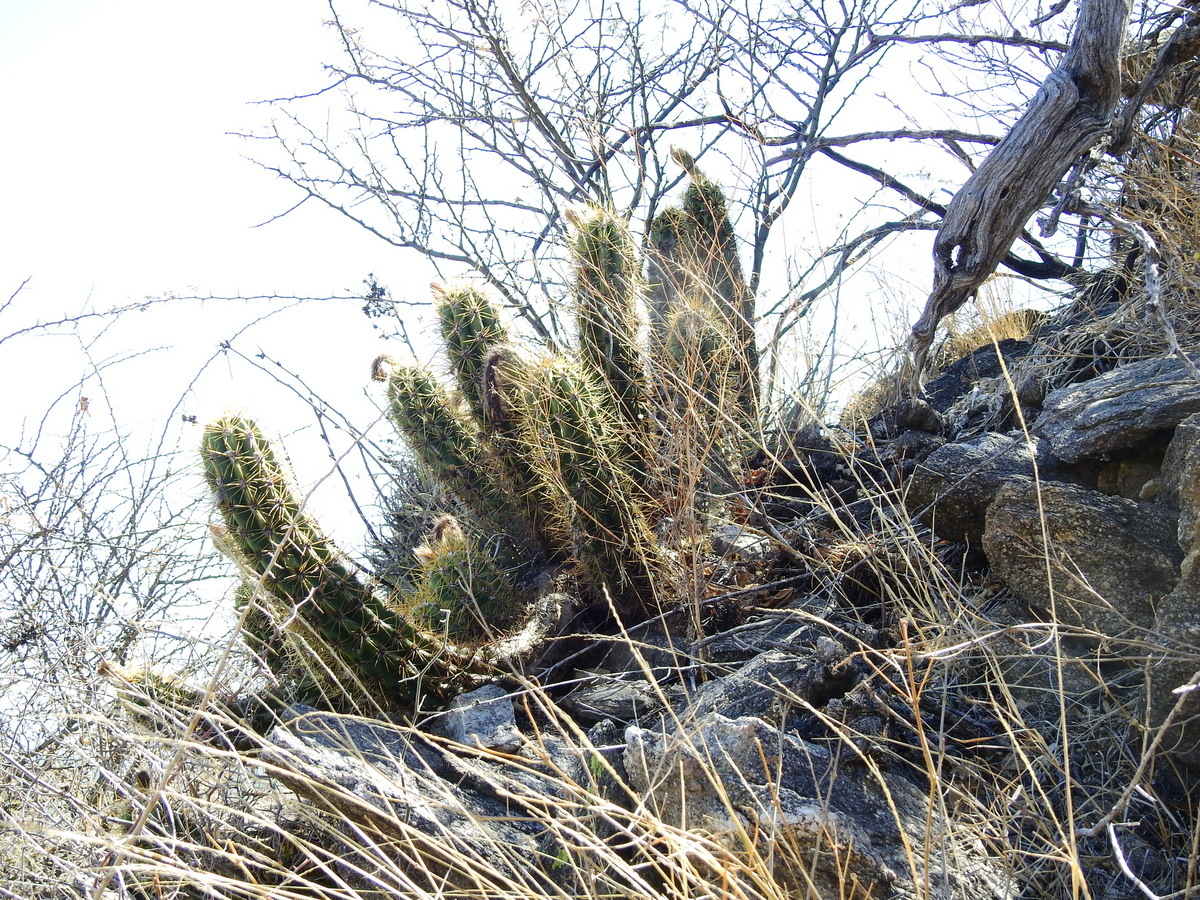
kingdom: Plantae
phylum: Tracheophyta
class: Magnoliopsida
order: Caryophyllales
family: Cactaceae
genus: Soehrensia
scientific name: Soehrensia candicans
